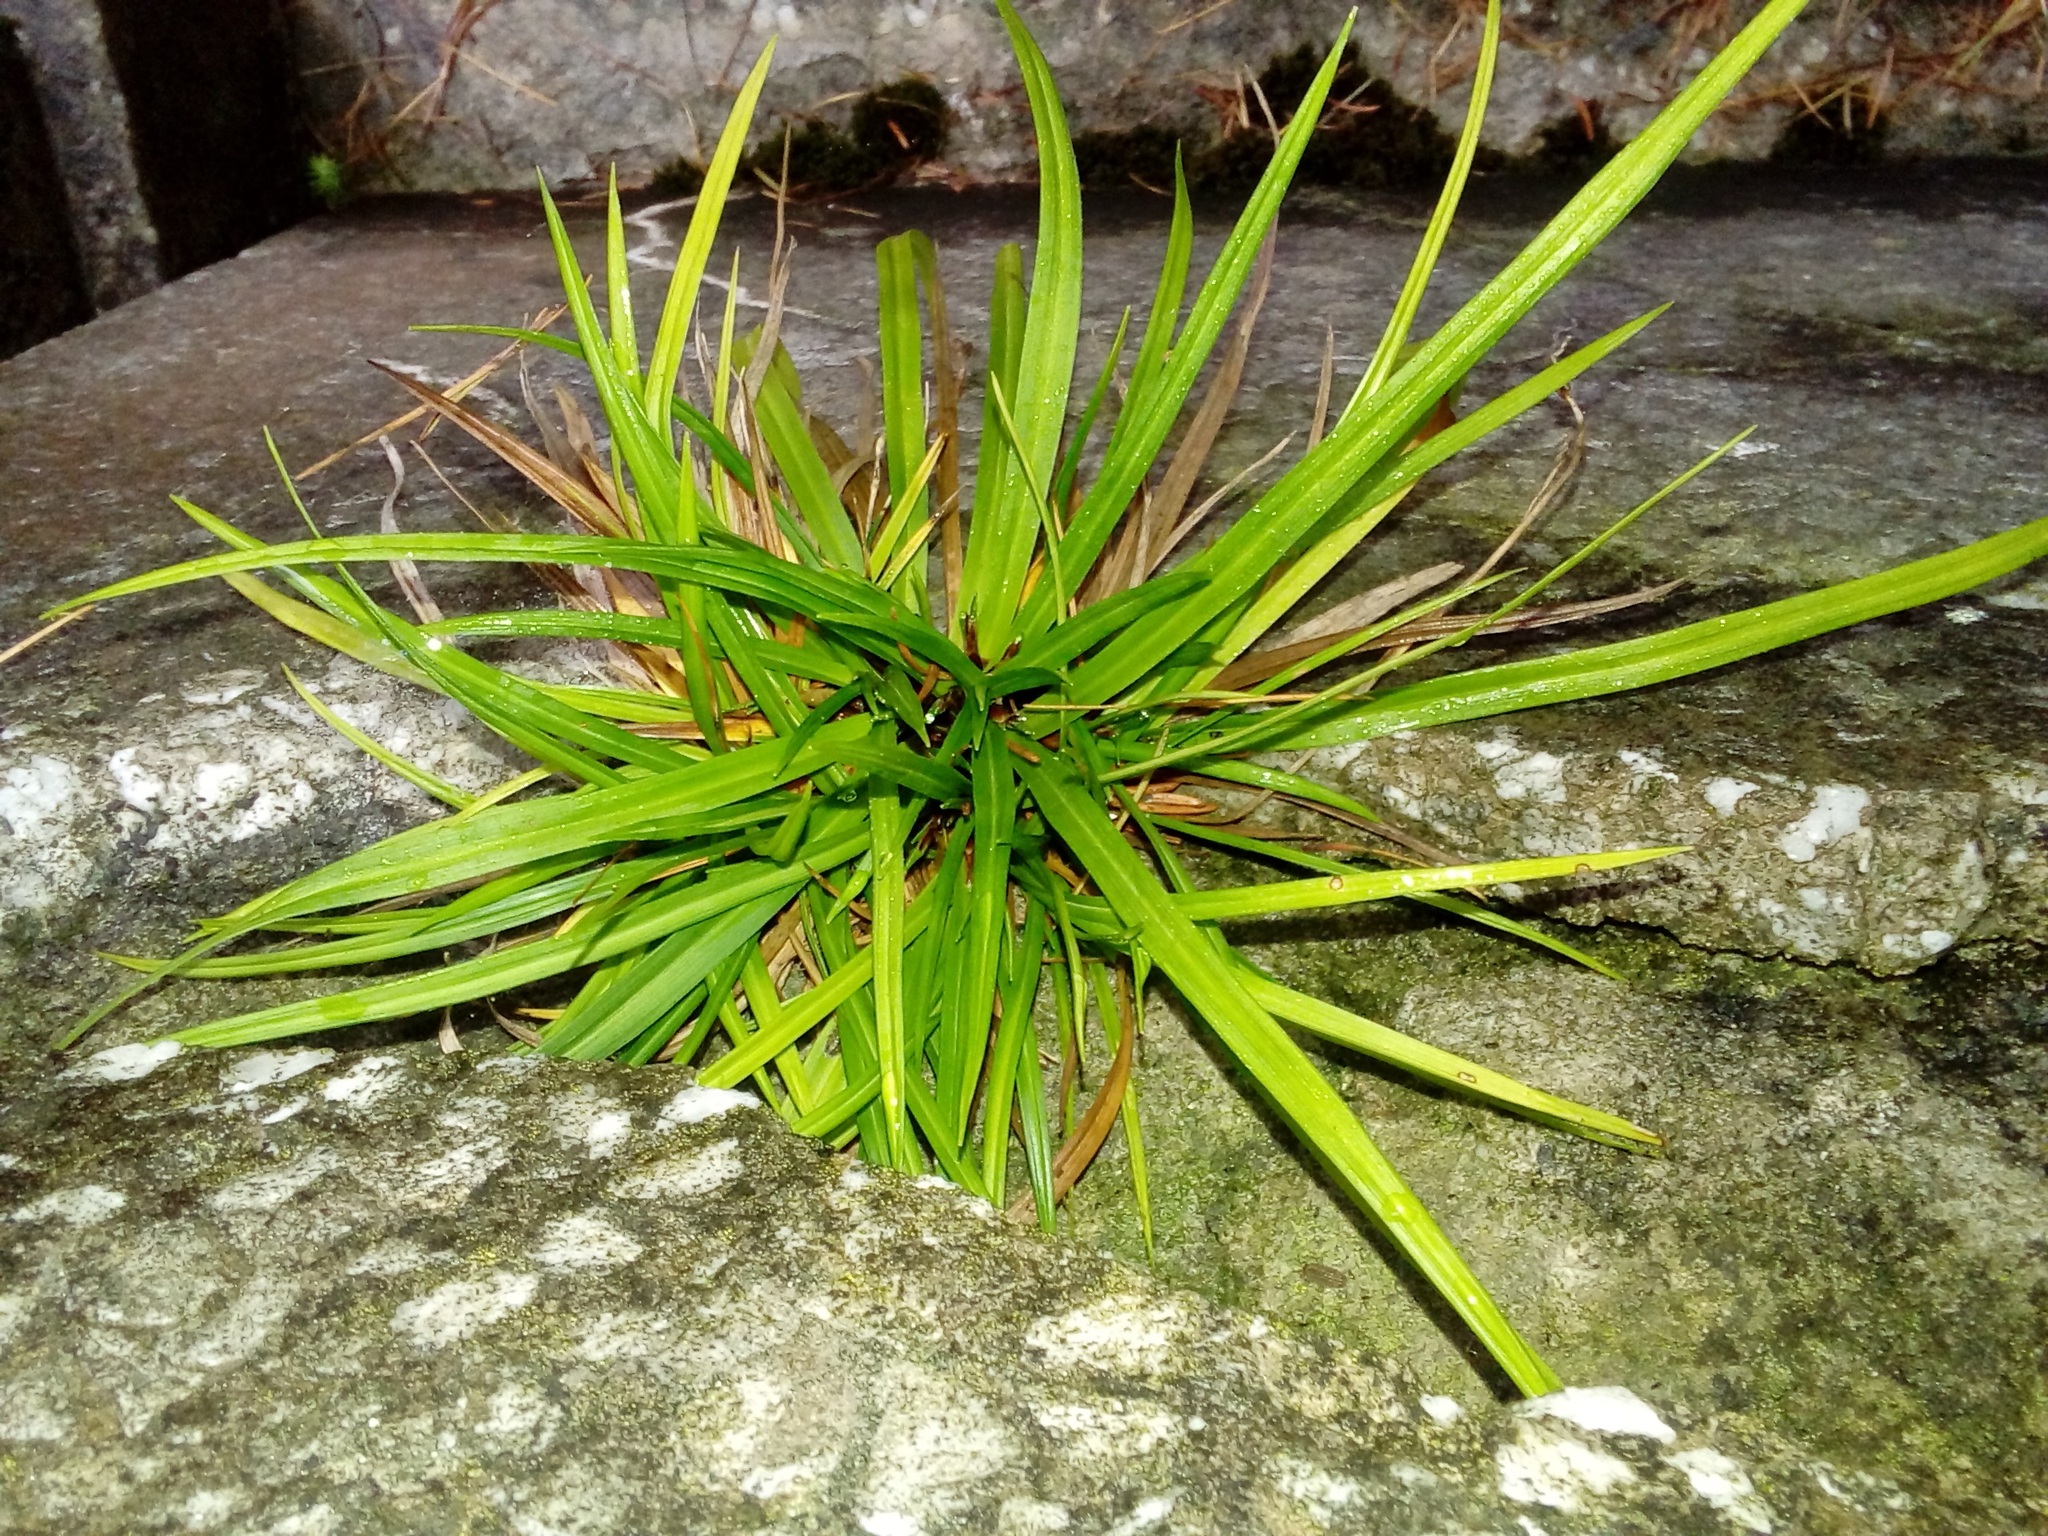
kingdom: Plantae
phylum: Tracheophyta
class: Liliopsida
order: Poales
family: Cyperaceae
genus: Carex
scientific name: Carex digitata
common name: Fingered sedge
